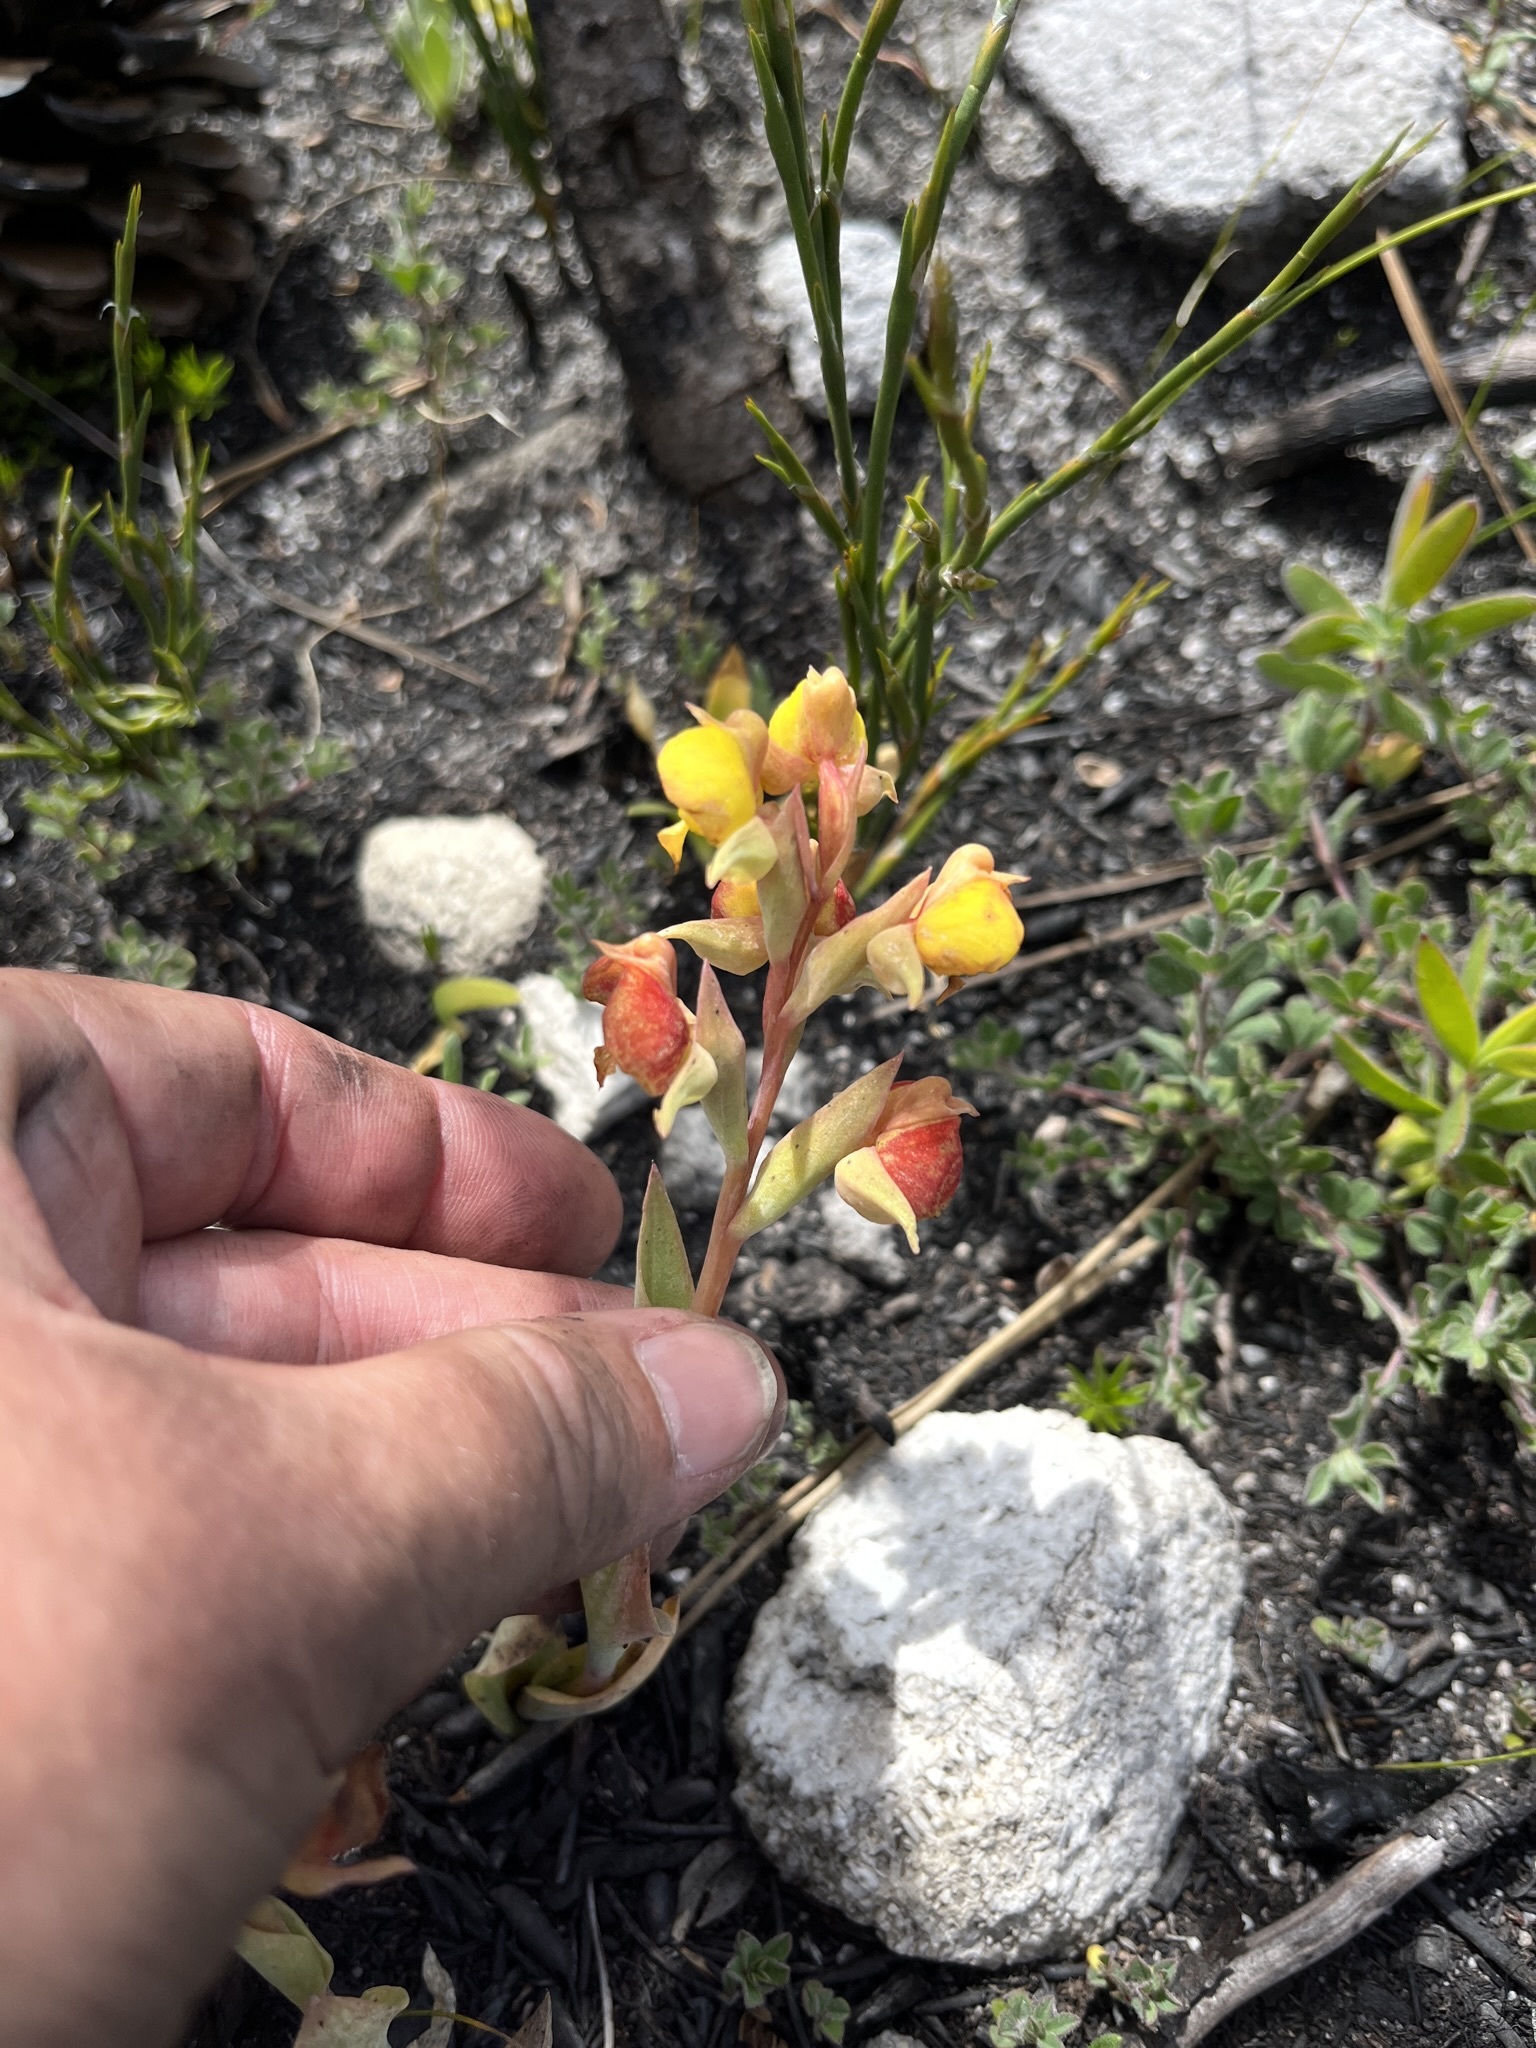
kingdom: Plantae
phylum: Tracheophyta
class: Liliopsida
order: Asparagales
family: Orchidaceae
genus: Pterygodium
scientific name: Pterygodium acutifolium
